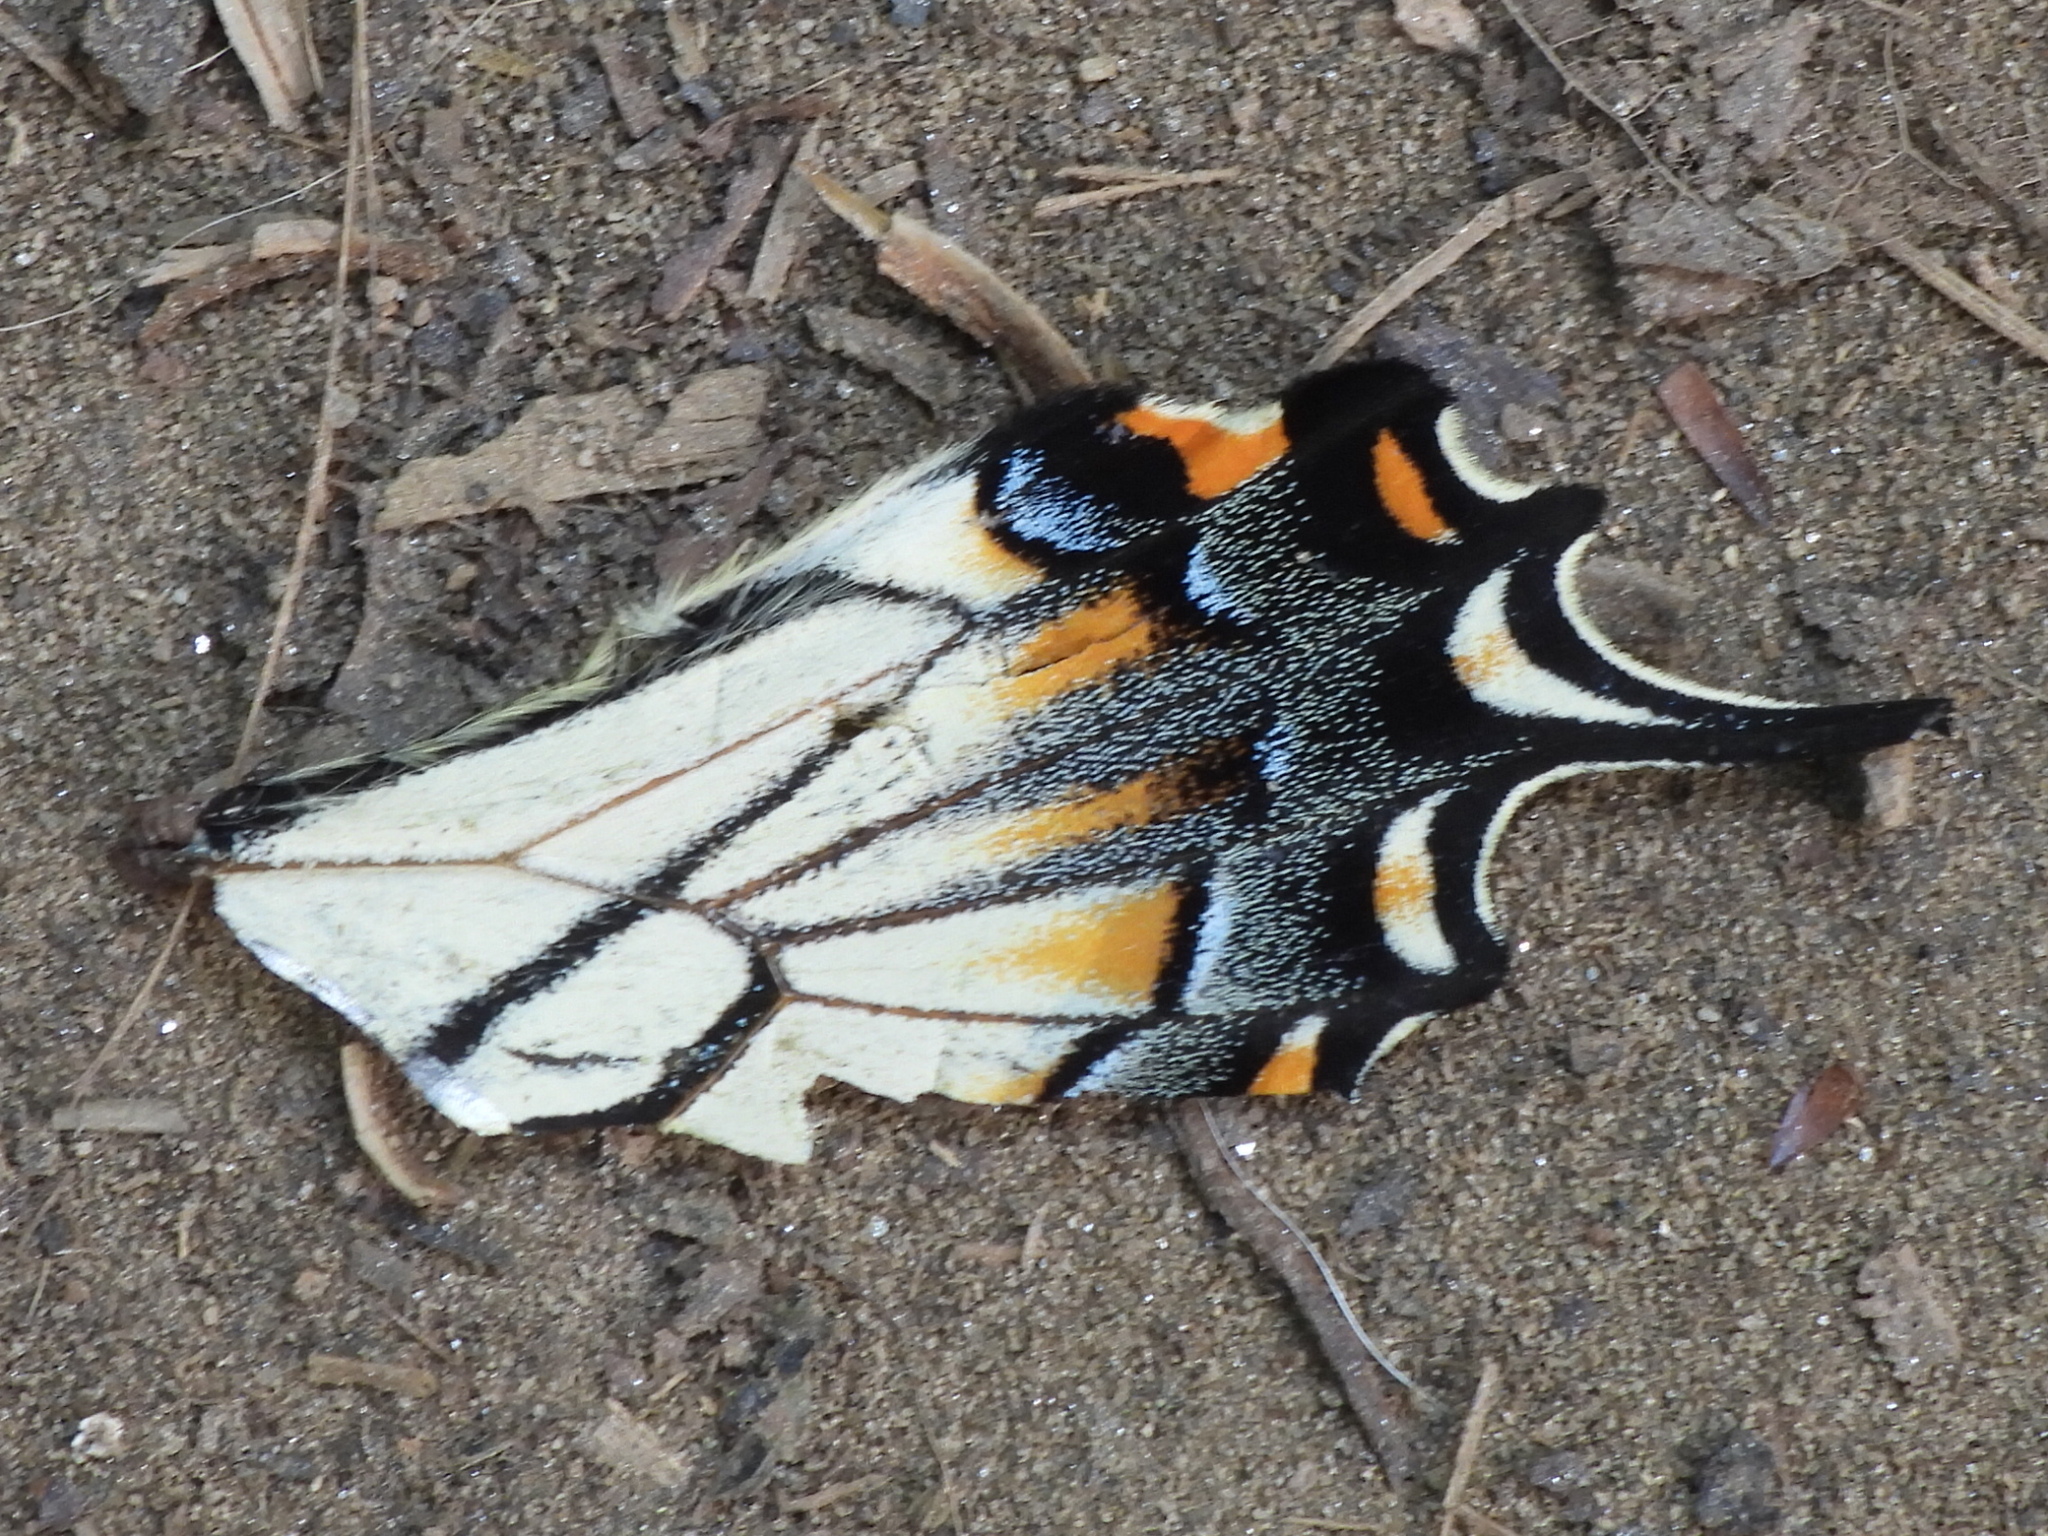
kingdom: Animalia
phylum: Arthropoda
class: Insecta
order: Lepidoptera
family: Papilionidae
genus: Papilio
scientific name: Papilio glaucus
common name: Tiger swallowtail
